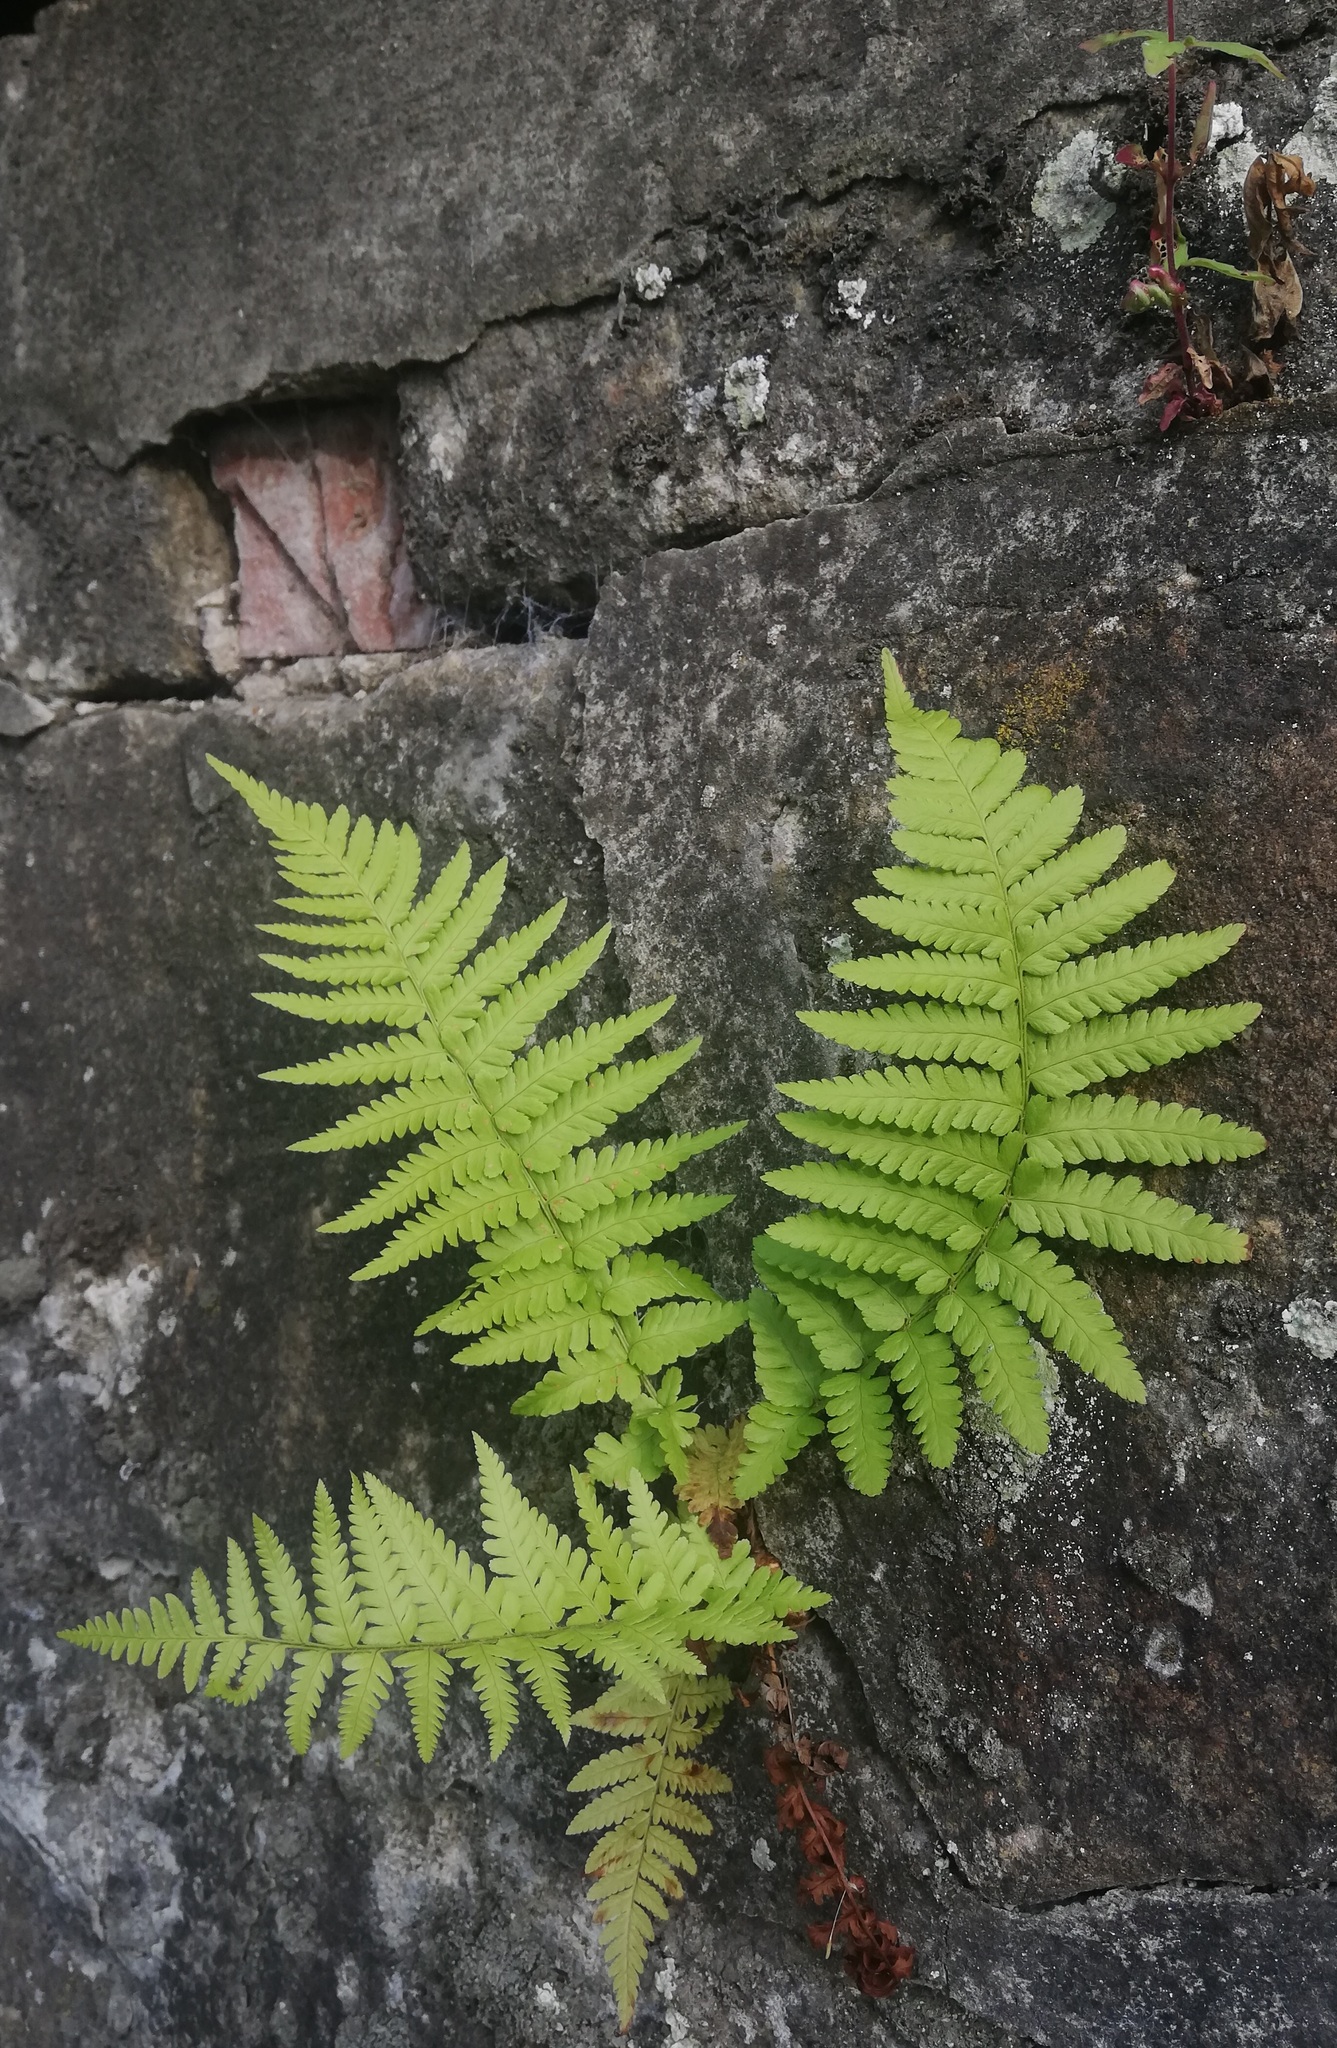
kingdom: Plantae
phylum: Tracheophyta
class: Polypodiopsida
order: Polypodiales
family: Dryopteridaceae
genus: Dryopteris
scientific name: Dryopteris filix-mas
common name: Male fern
